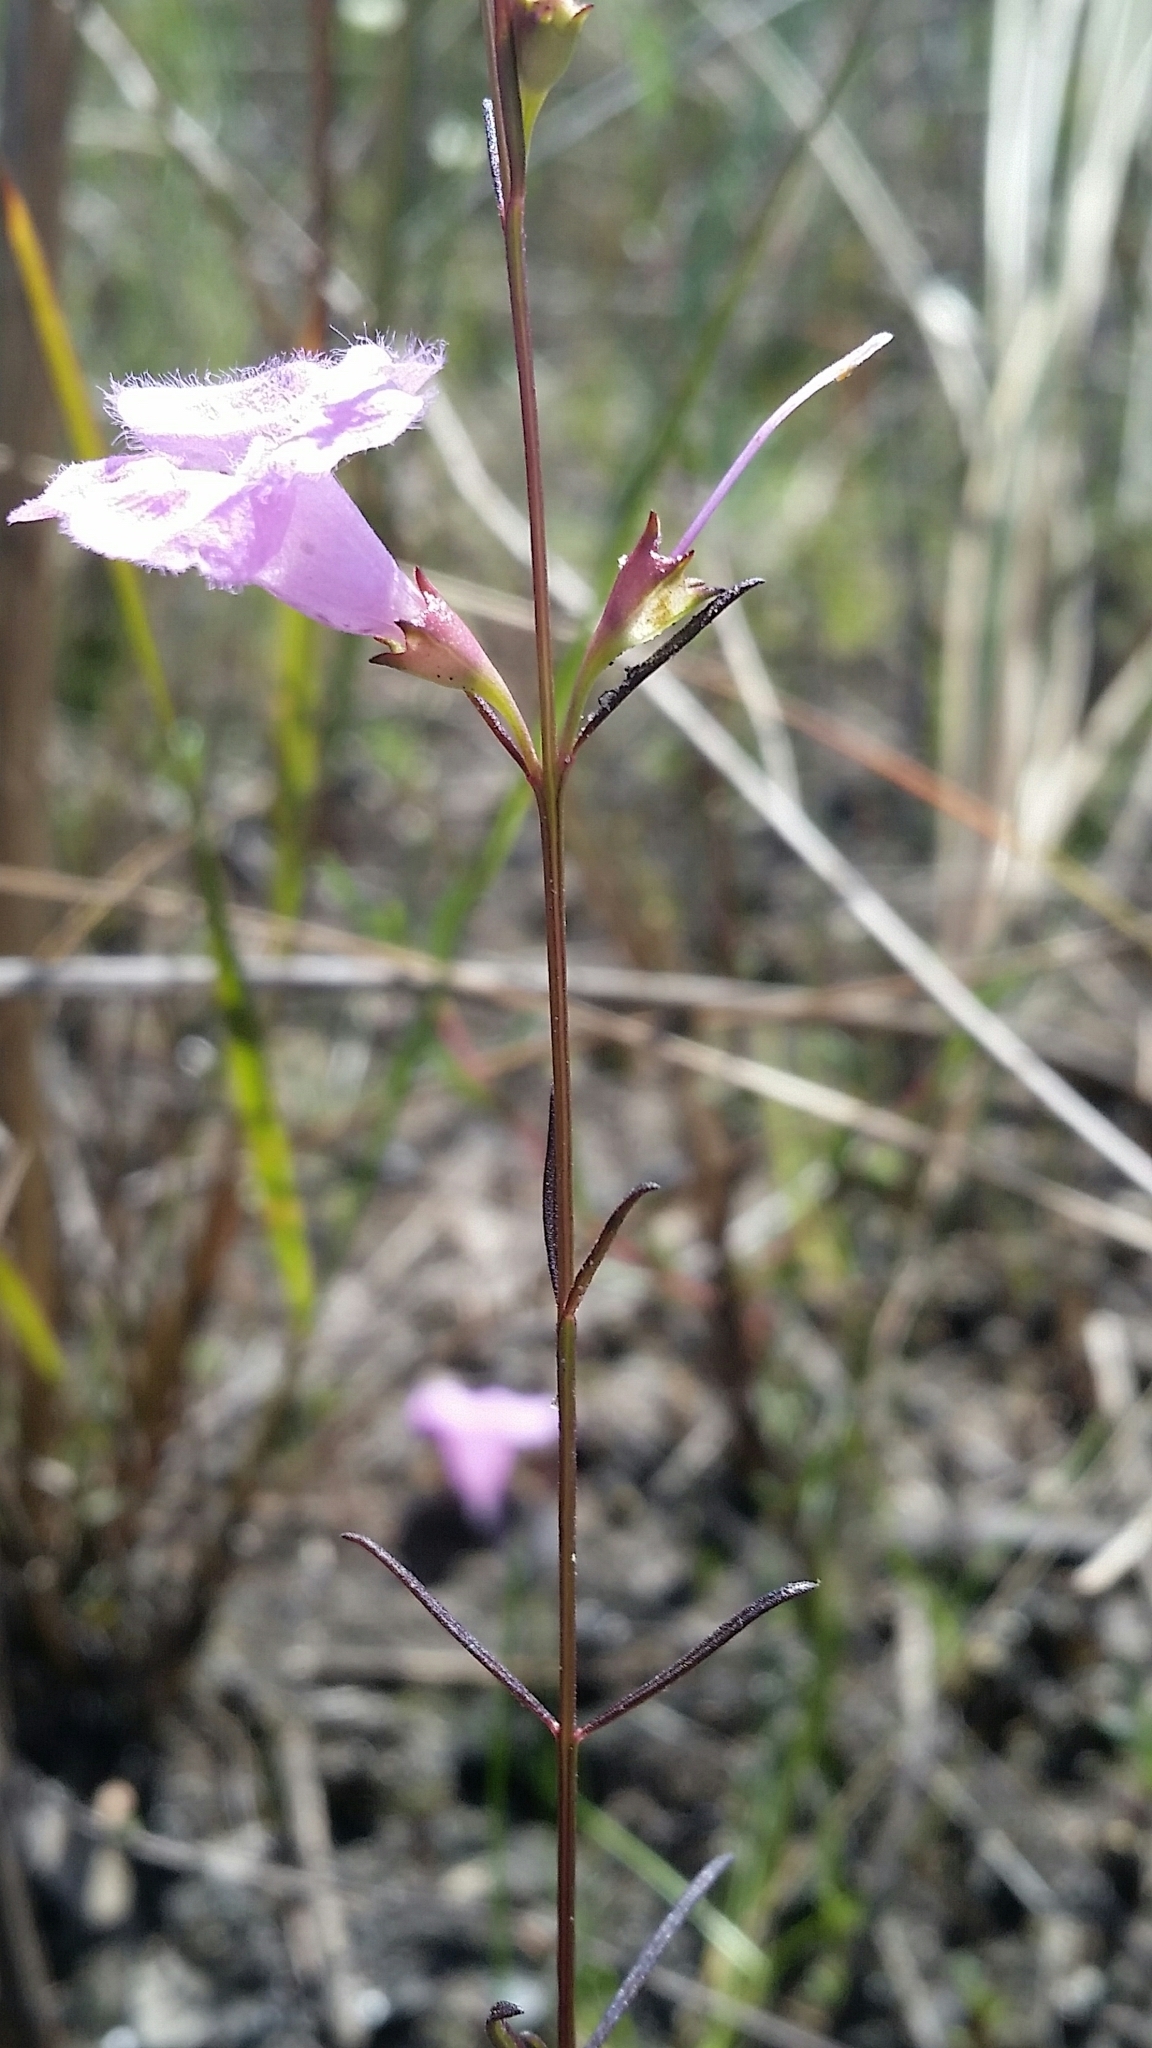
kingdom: Plantae
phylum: Tracheophyta
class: Magnoliopsida
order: Lamiales
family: Orobanchaceae
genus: Agalinis
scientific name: Agalinis harperi
